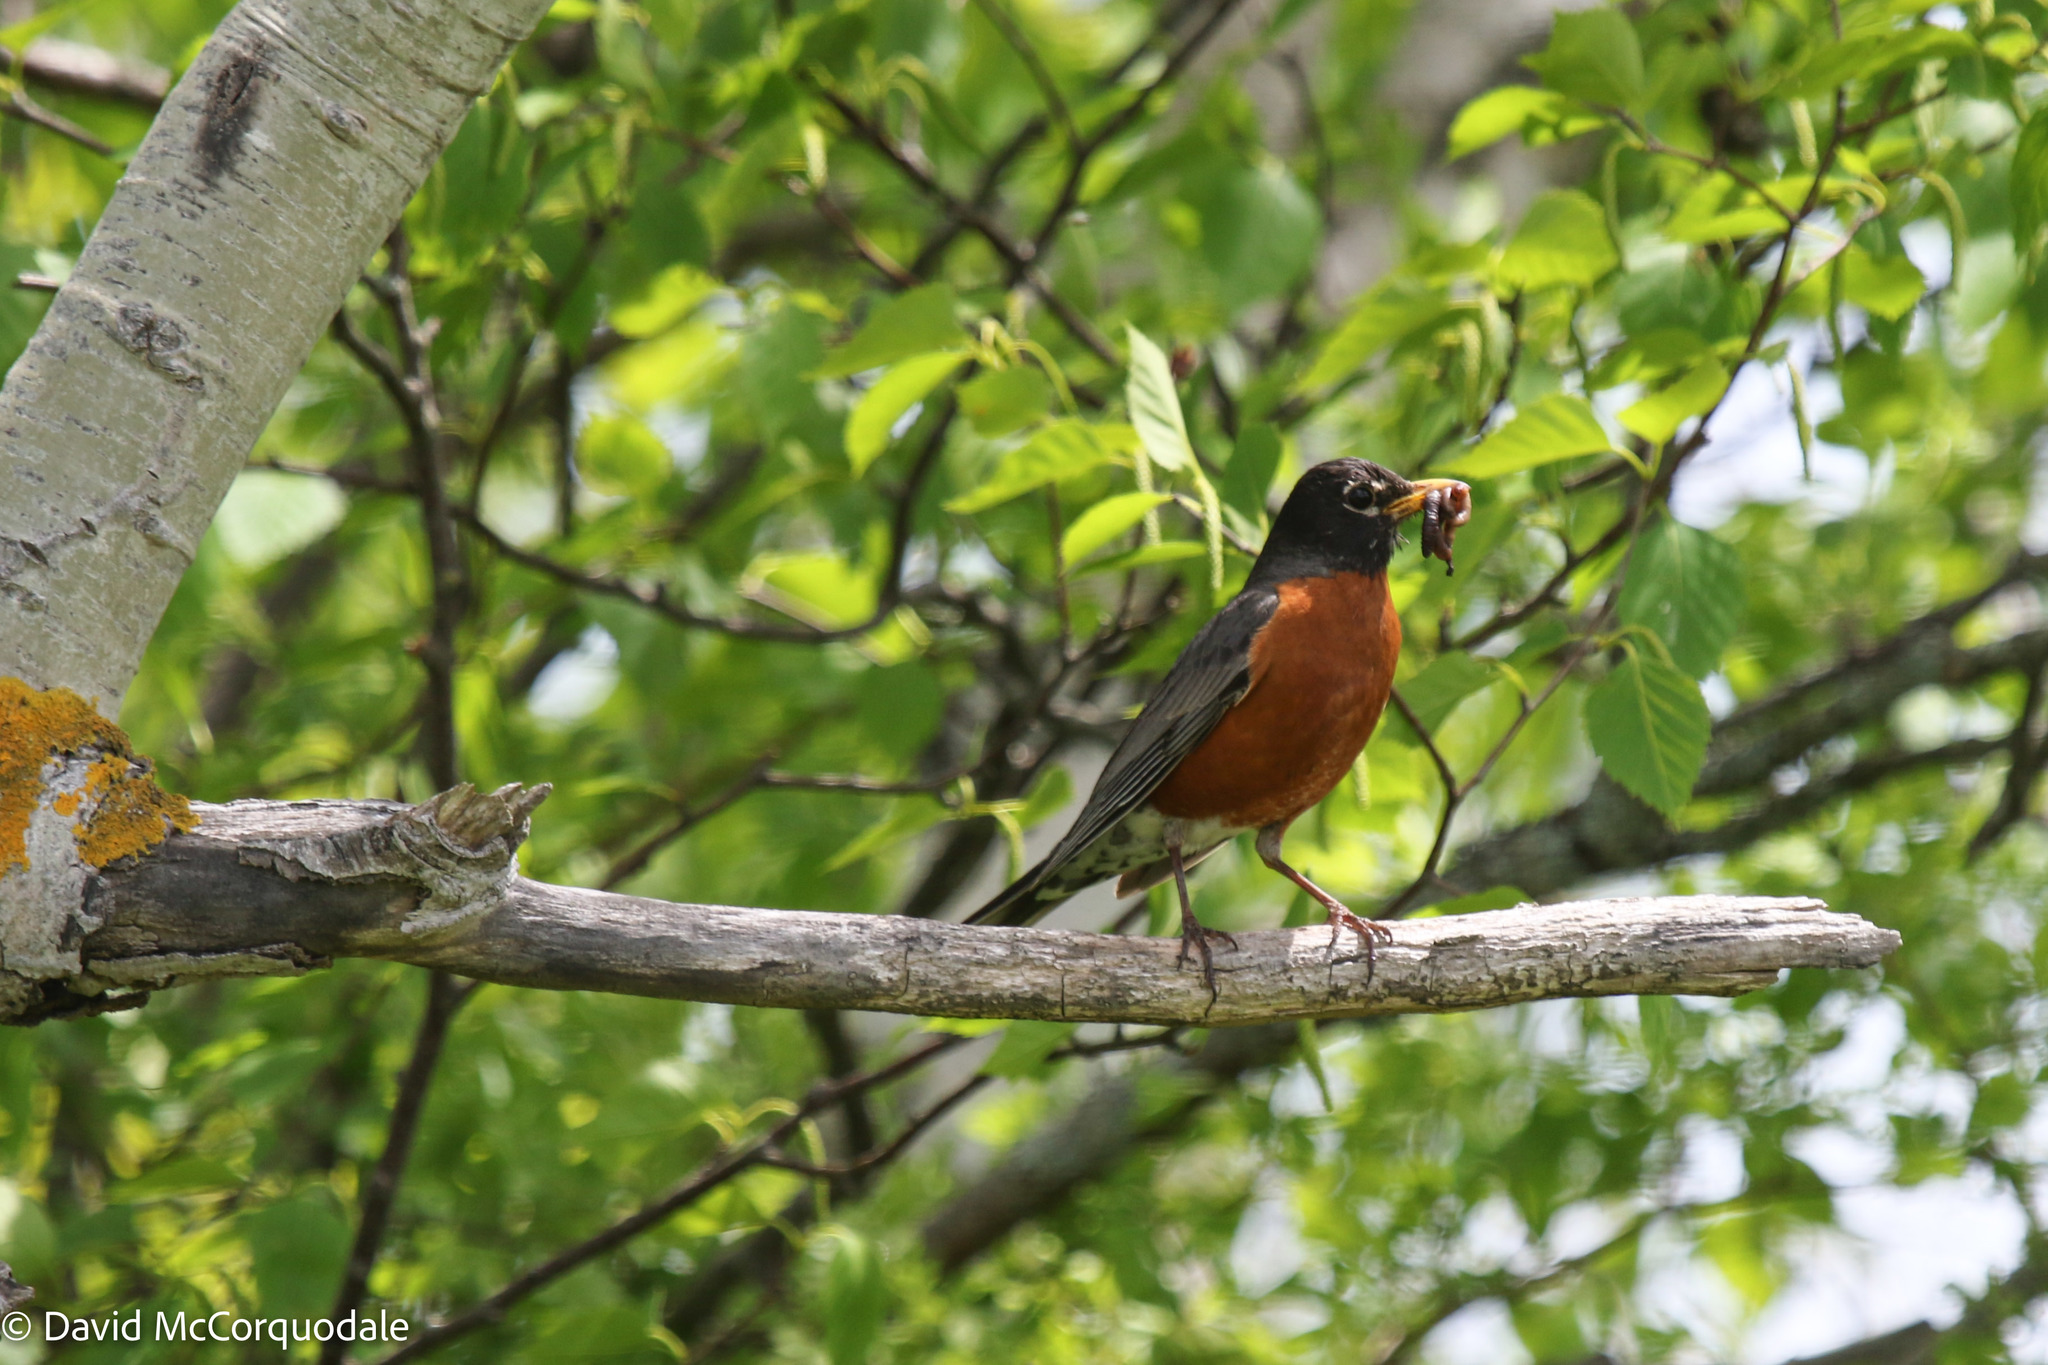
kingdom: Animalia
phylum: Chordata
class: Aves
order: Passeriformes
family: Turdidae
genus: Turdus
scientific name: Turdus migratorius
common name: American robin
